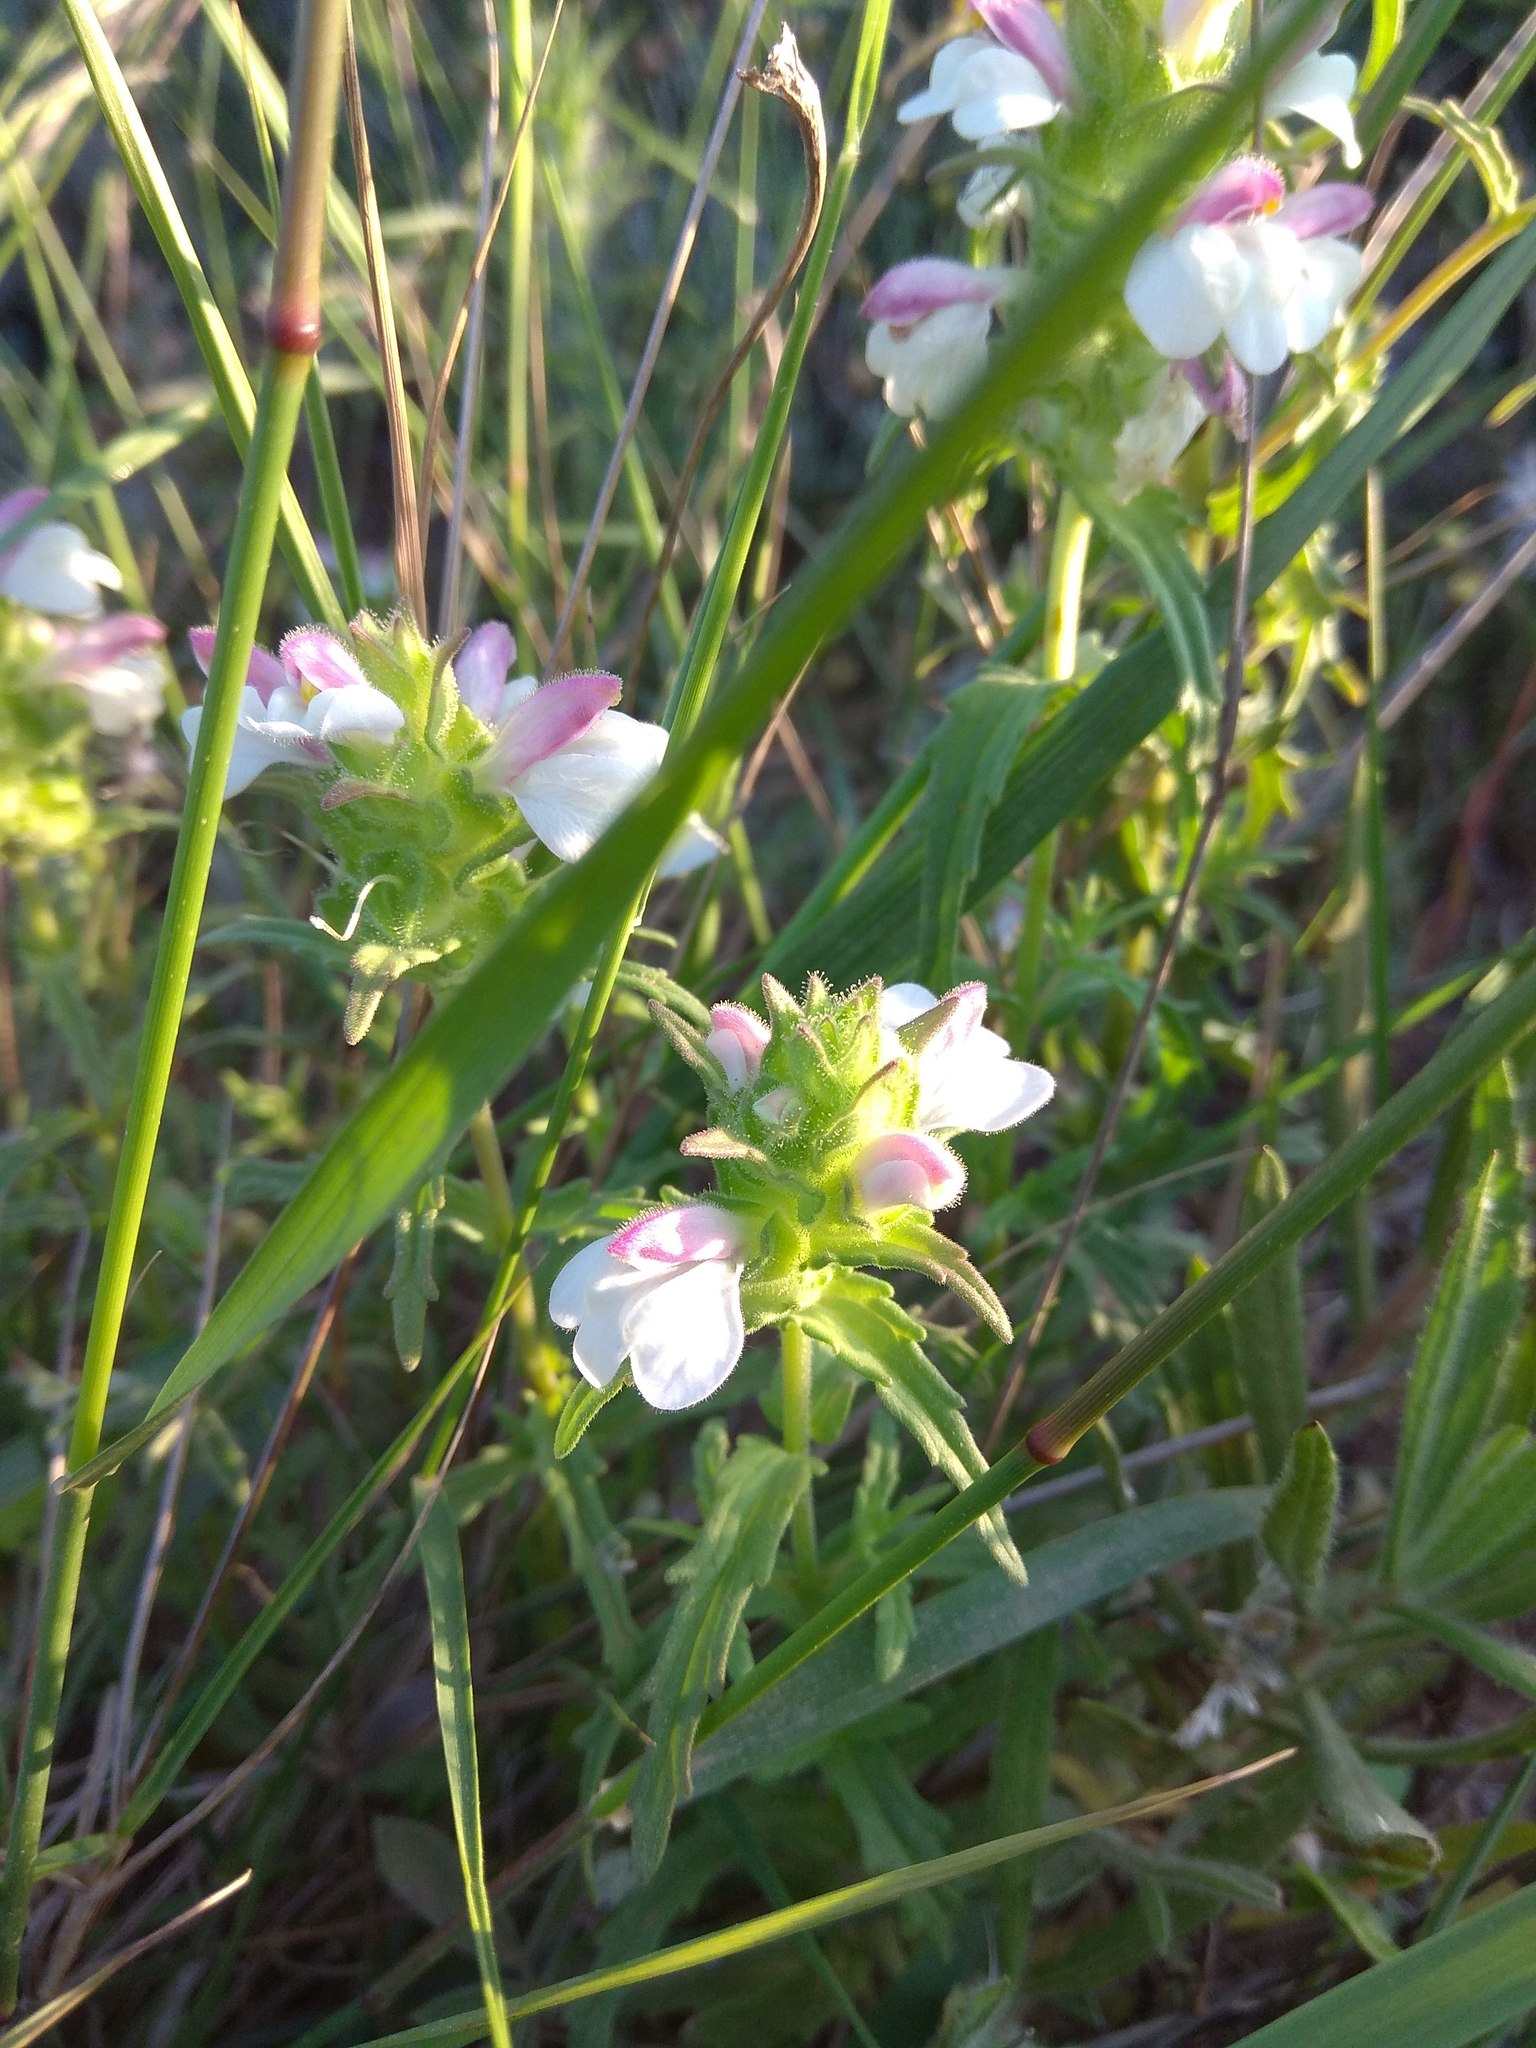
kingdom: Plantae
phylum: Tracheophyta
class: Magnoliopsida
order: Lamiales
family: Orobanchaceae
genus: Bellardia
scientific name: Bellardia trixago
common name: Mediterranean lineseed
